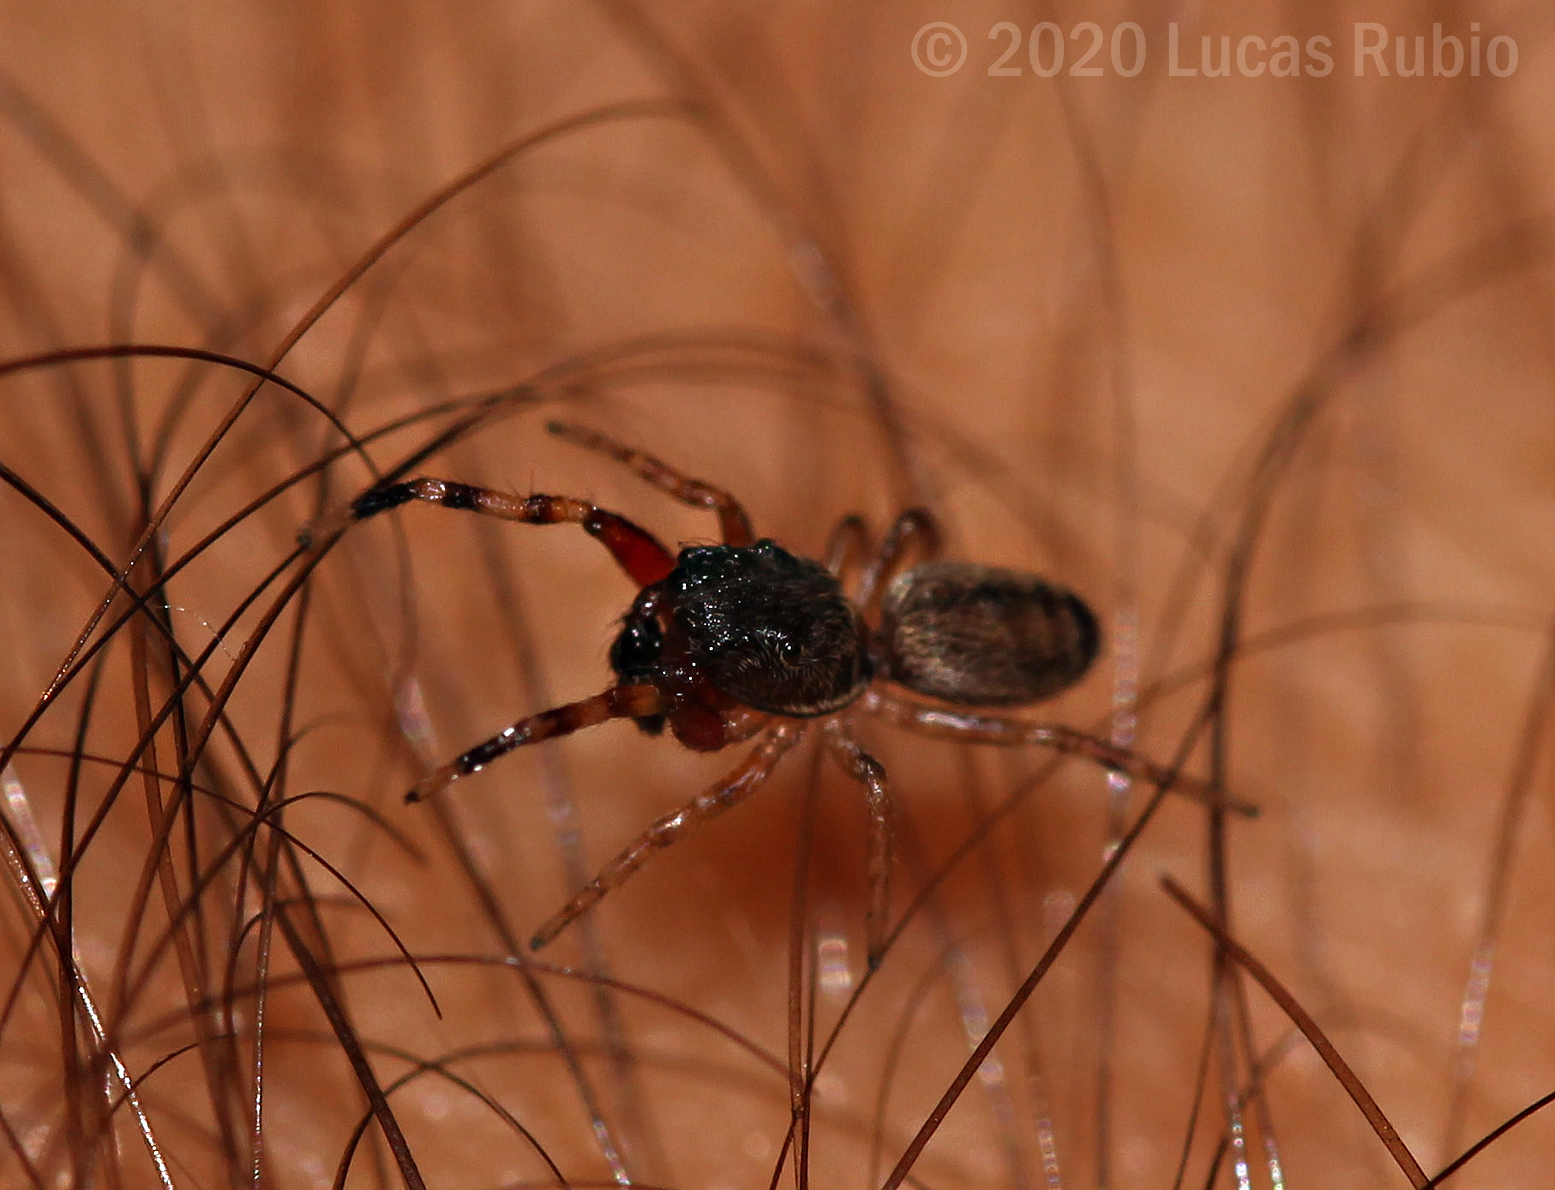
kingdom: Animalia
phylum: Arthropoda
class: Arachnida
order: Araneae
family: Salticidae
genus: Tartamura
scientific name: Tartamura adfectuosa
